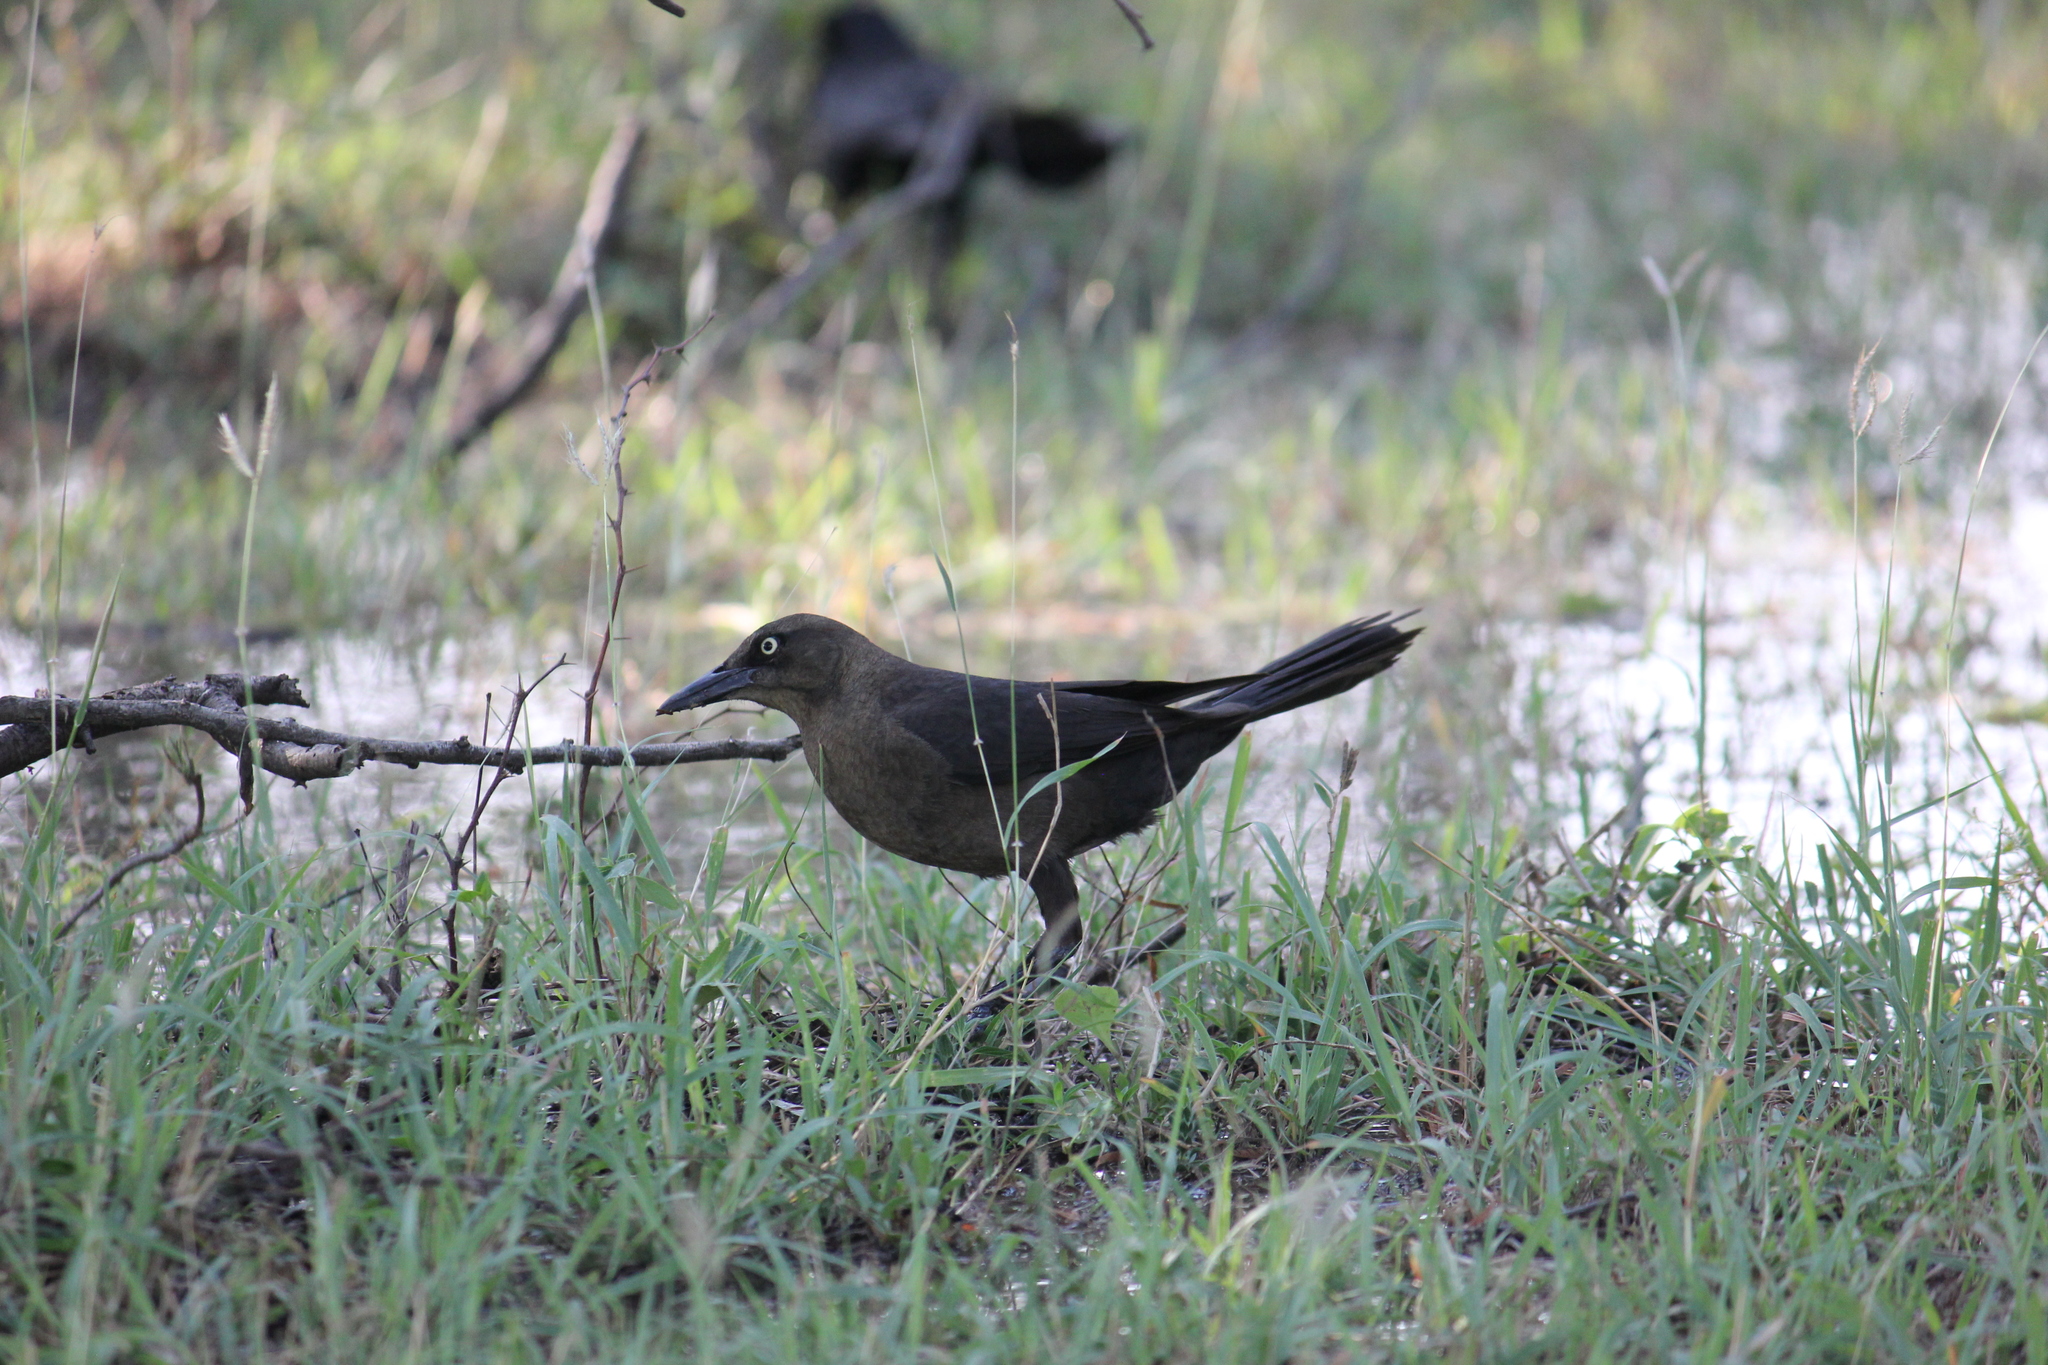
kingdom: Animalia
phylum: Chordata
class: Aves
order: Passeriformes
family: Icteridae
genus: Quiscalus
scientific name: Quiscalus mexicanus
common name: Great-tailed grackle
